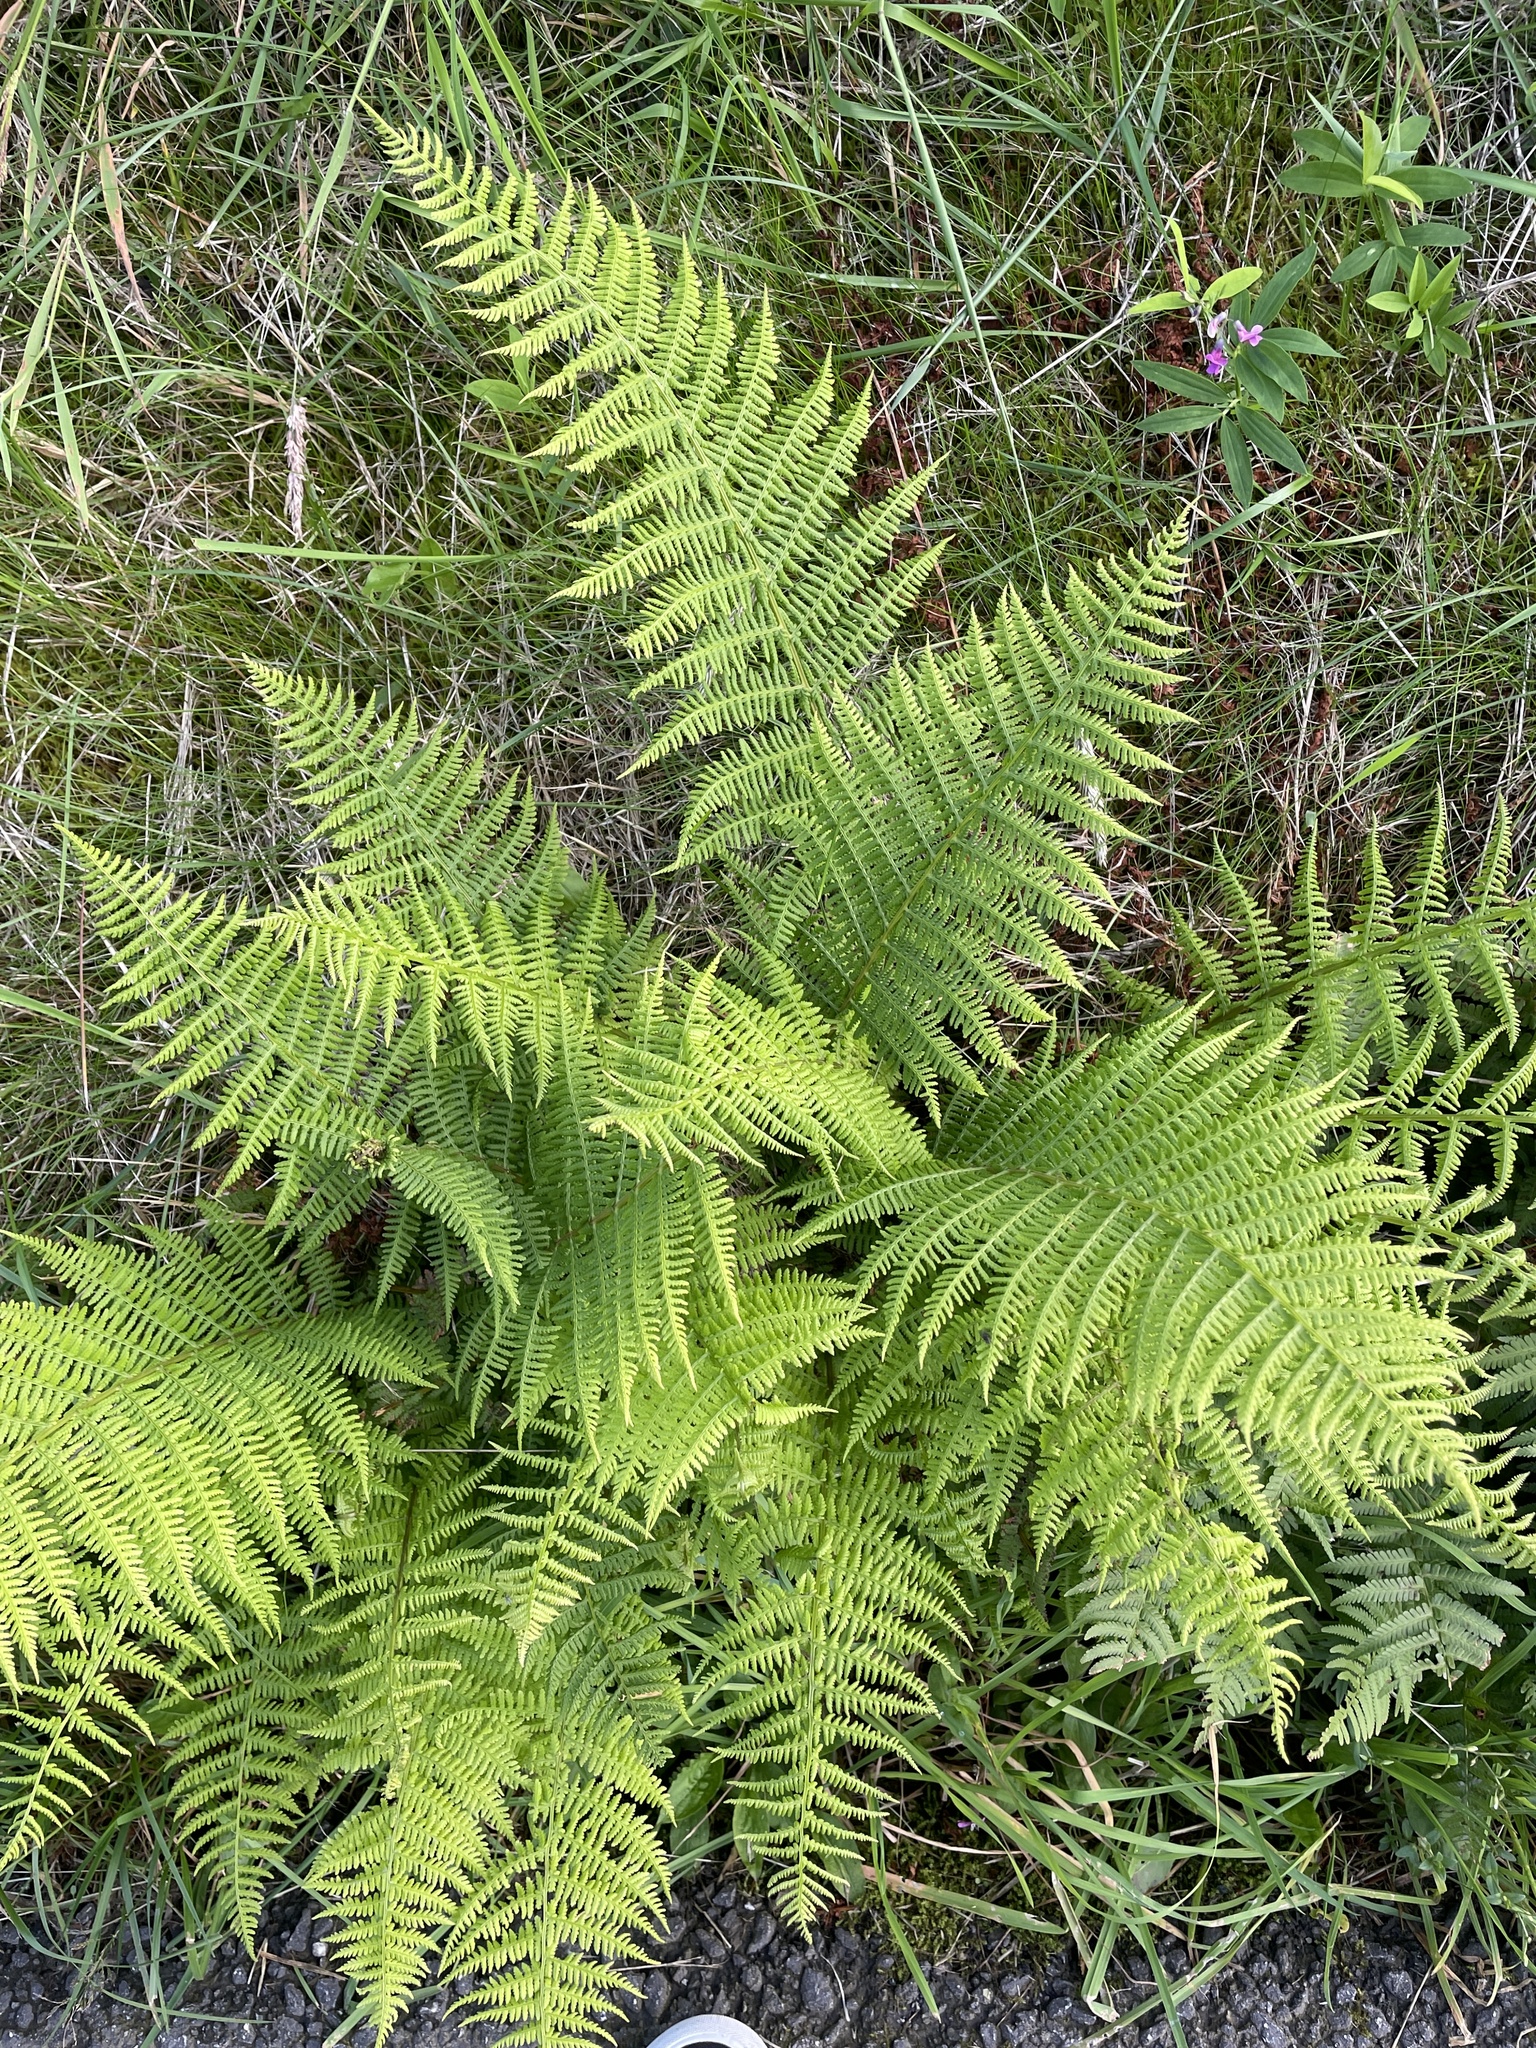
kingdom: Plantae
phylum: Tracheophyta
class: Polypodiopsida
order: Polypodiales
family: Athyriaceae
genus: Athyrium
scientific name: Athyrium filix-femina
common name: Lady fern
